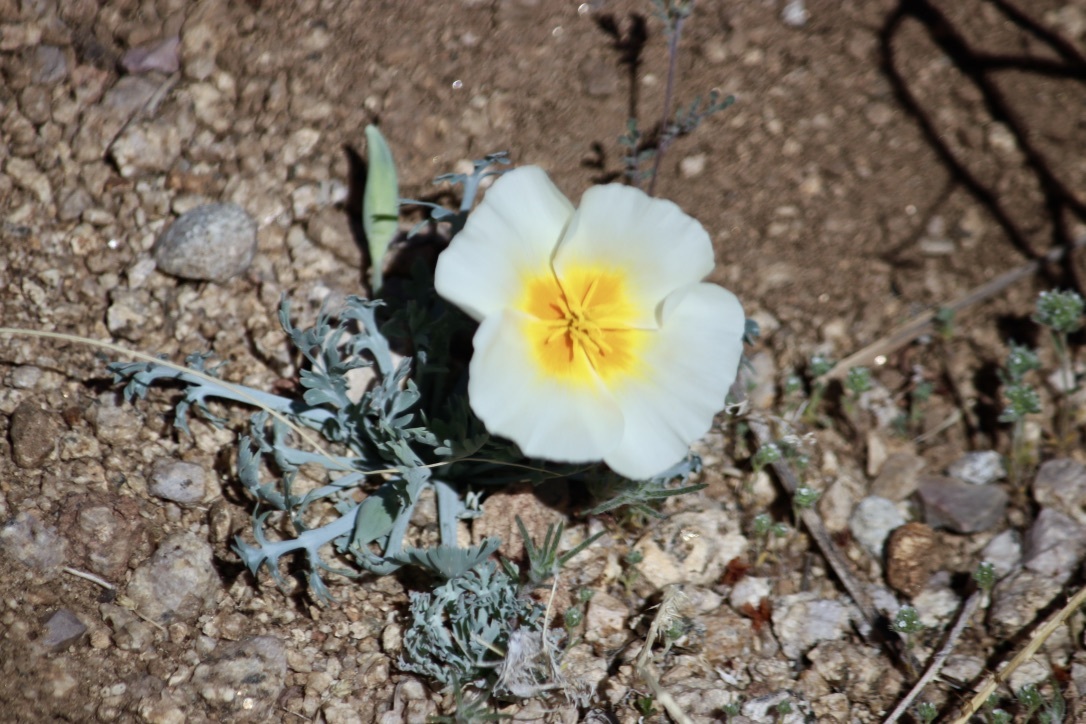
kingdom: Plantae
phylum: Tracheophyta
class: Magnoliopsida
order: Ranunculales
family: Papaveraceae
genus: Eschscholzia
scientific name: Eschscholzia californica
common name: California poppy
